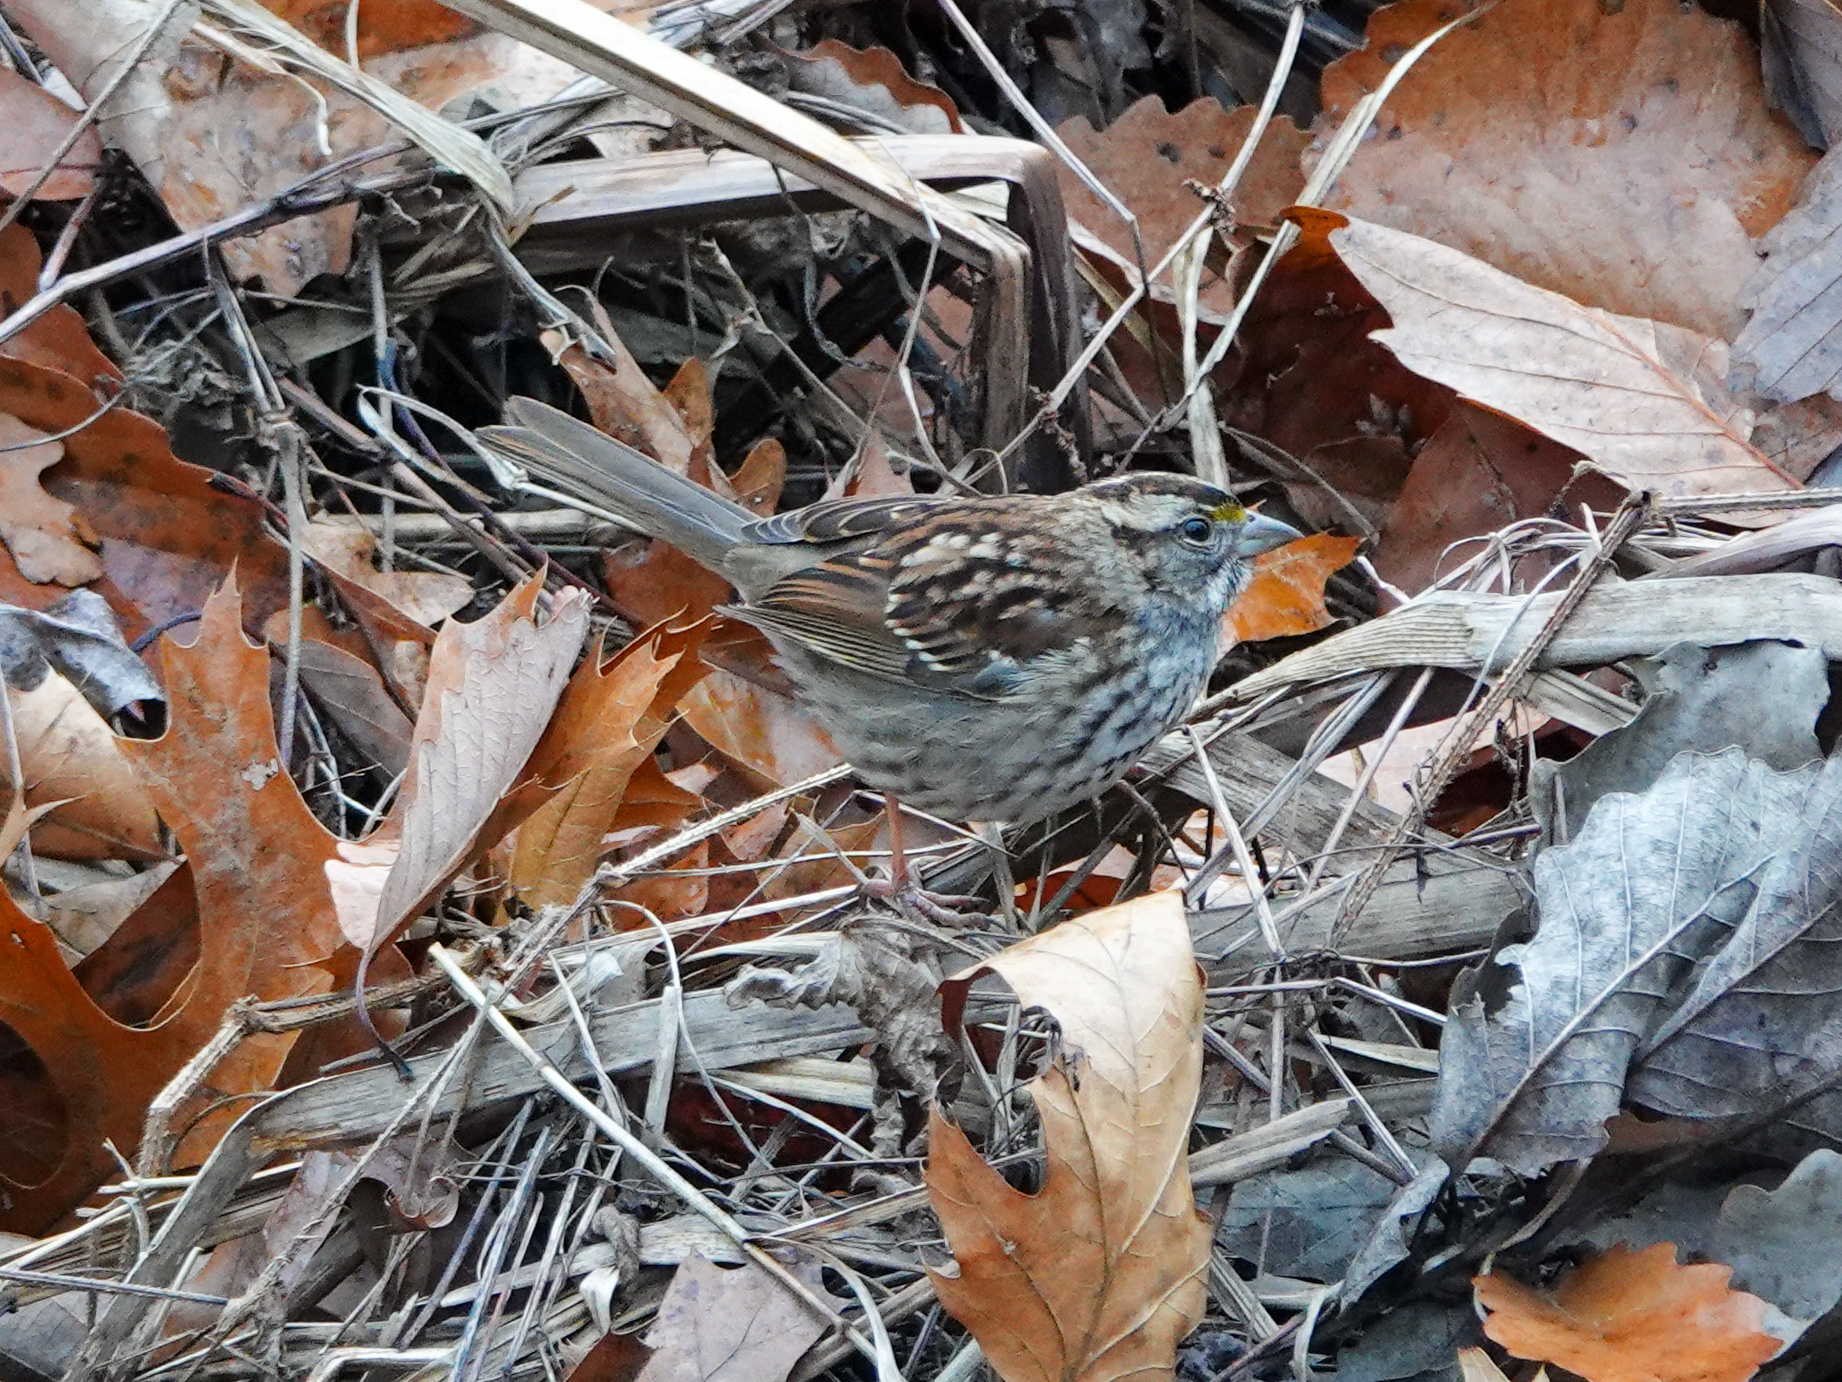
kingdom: Animalia
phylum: Chordata
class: Aves
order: Passeriformes
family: Passerellidae
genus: Zonotrichia
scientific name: Zonotrichia albicollis
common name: White-throated sparrow
